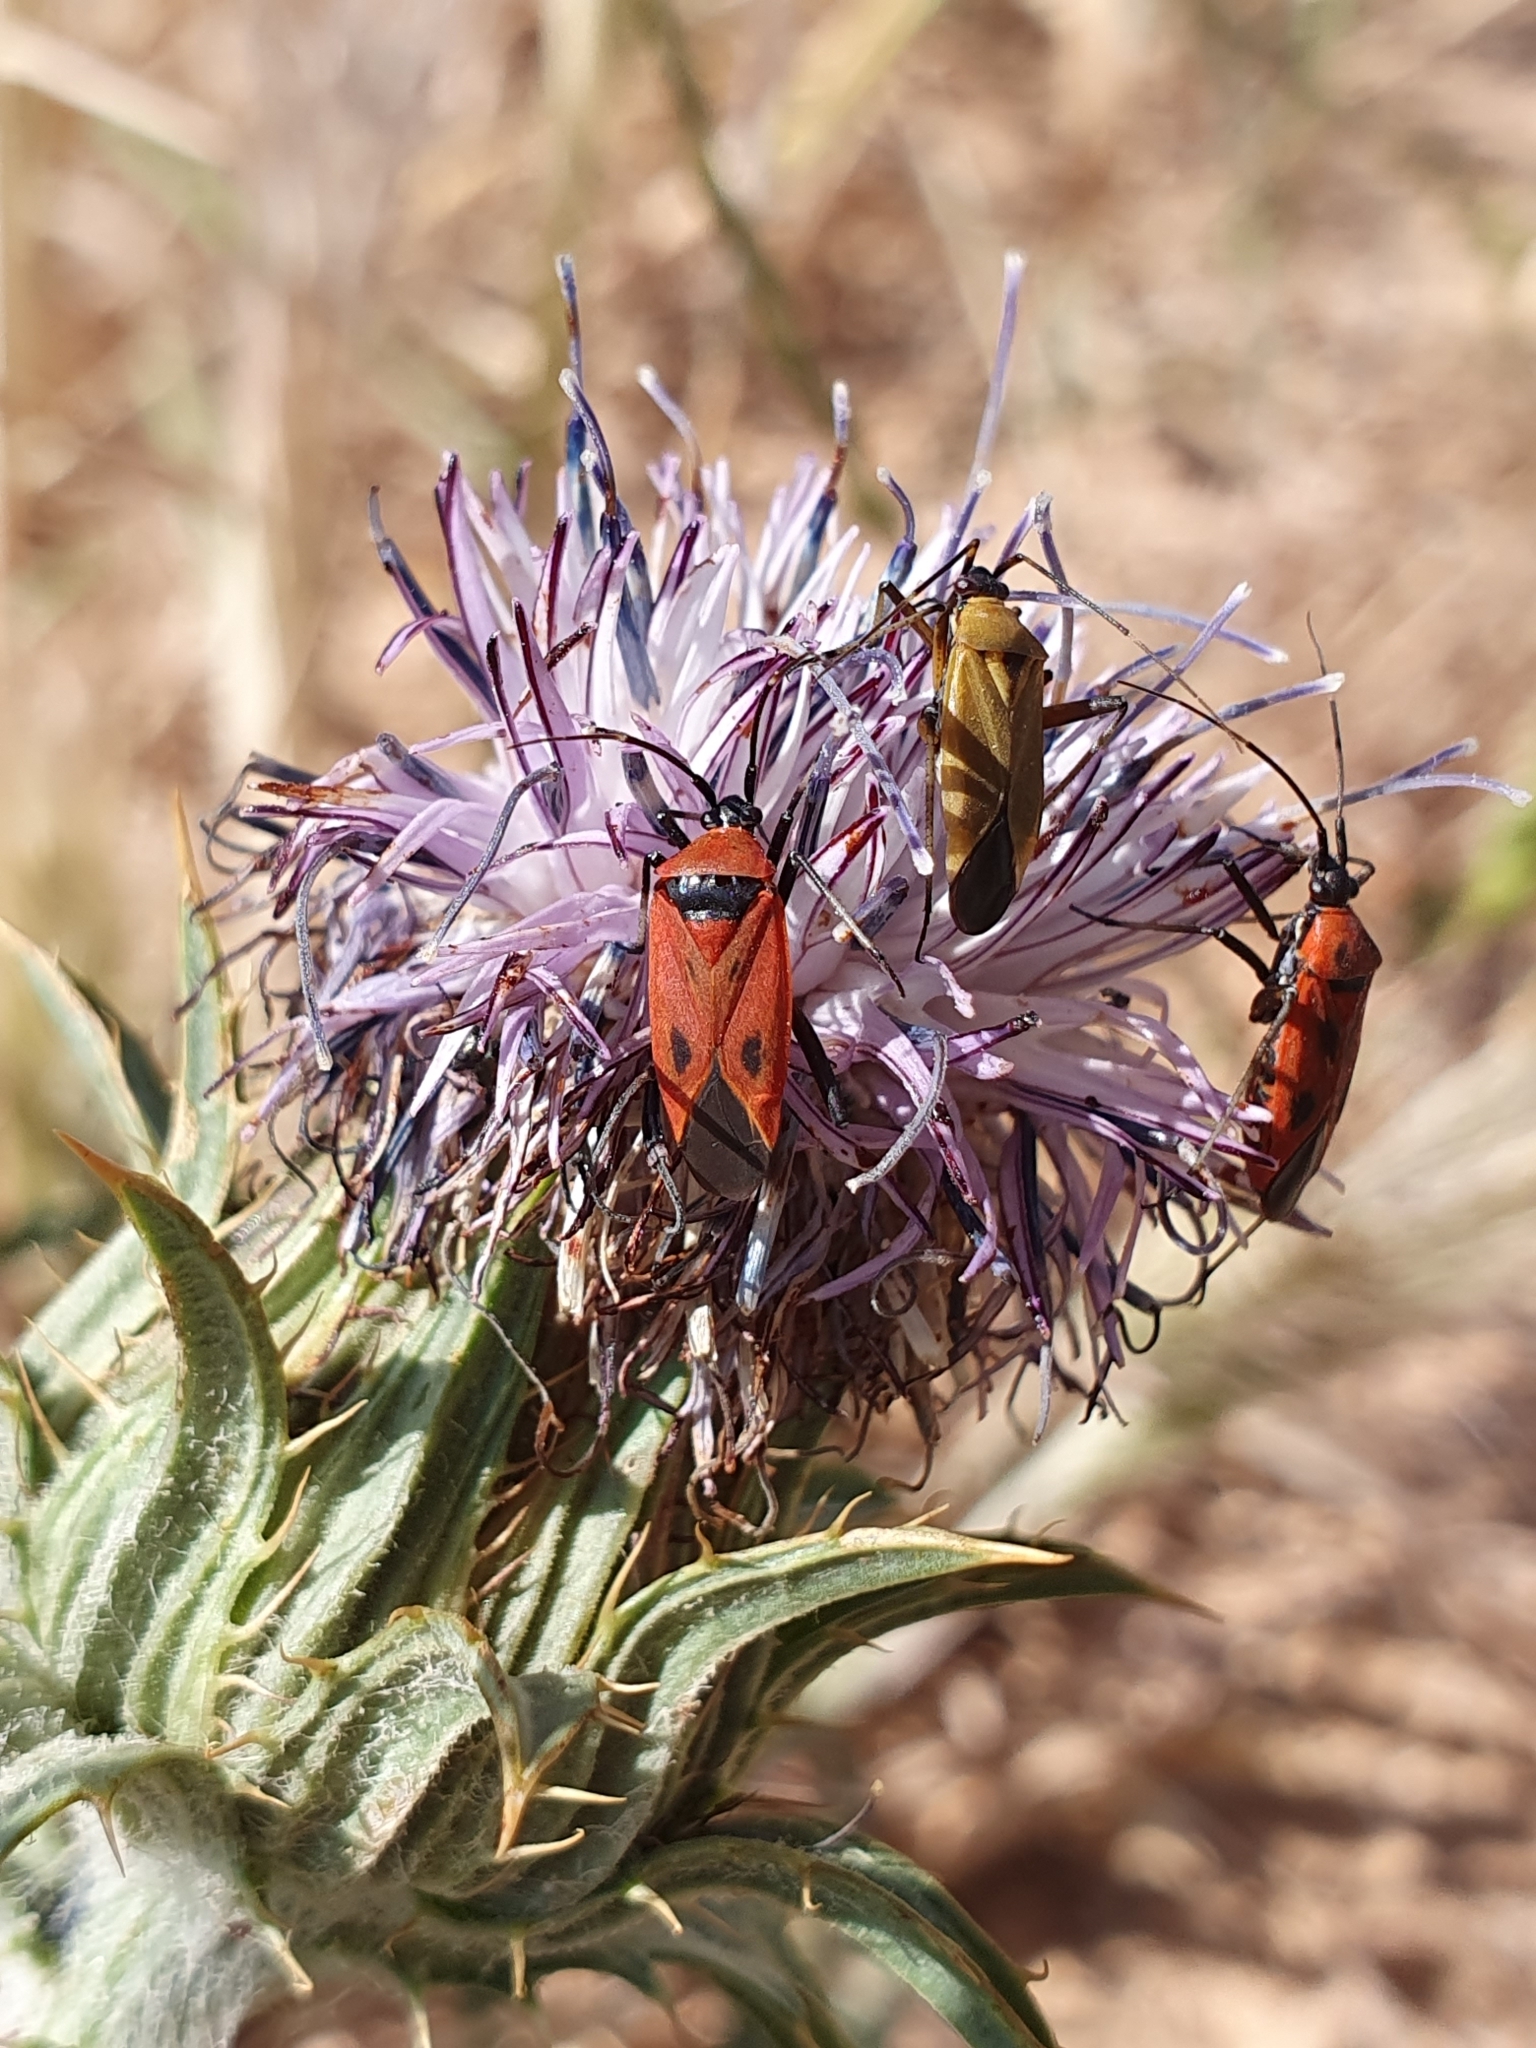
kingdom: Animalia
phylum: Arthropoda
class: Insecta
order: Hemiptera
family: Miridae
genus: Calocoris
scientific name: Calocoris nemoralis
